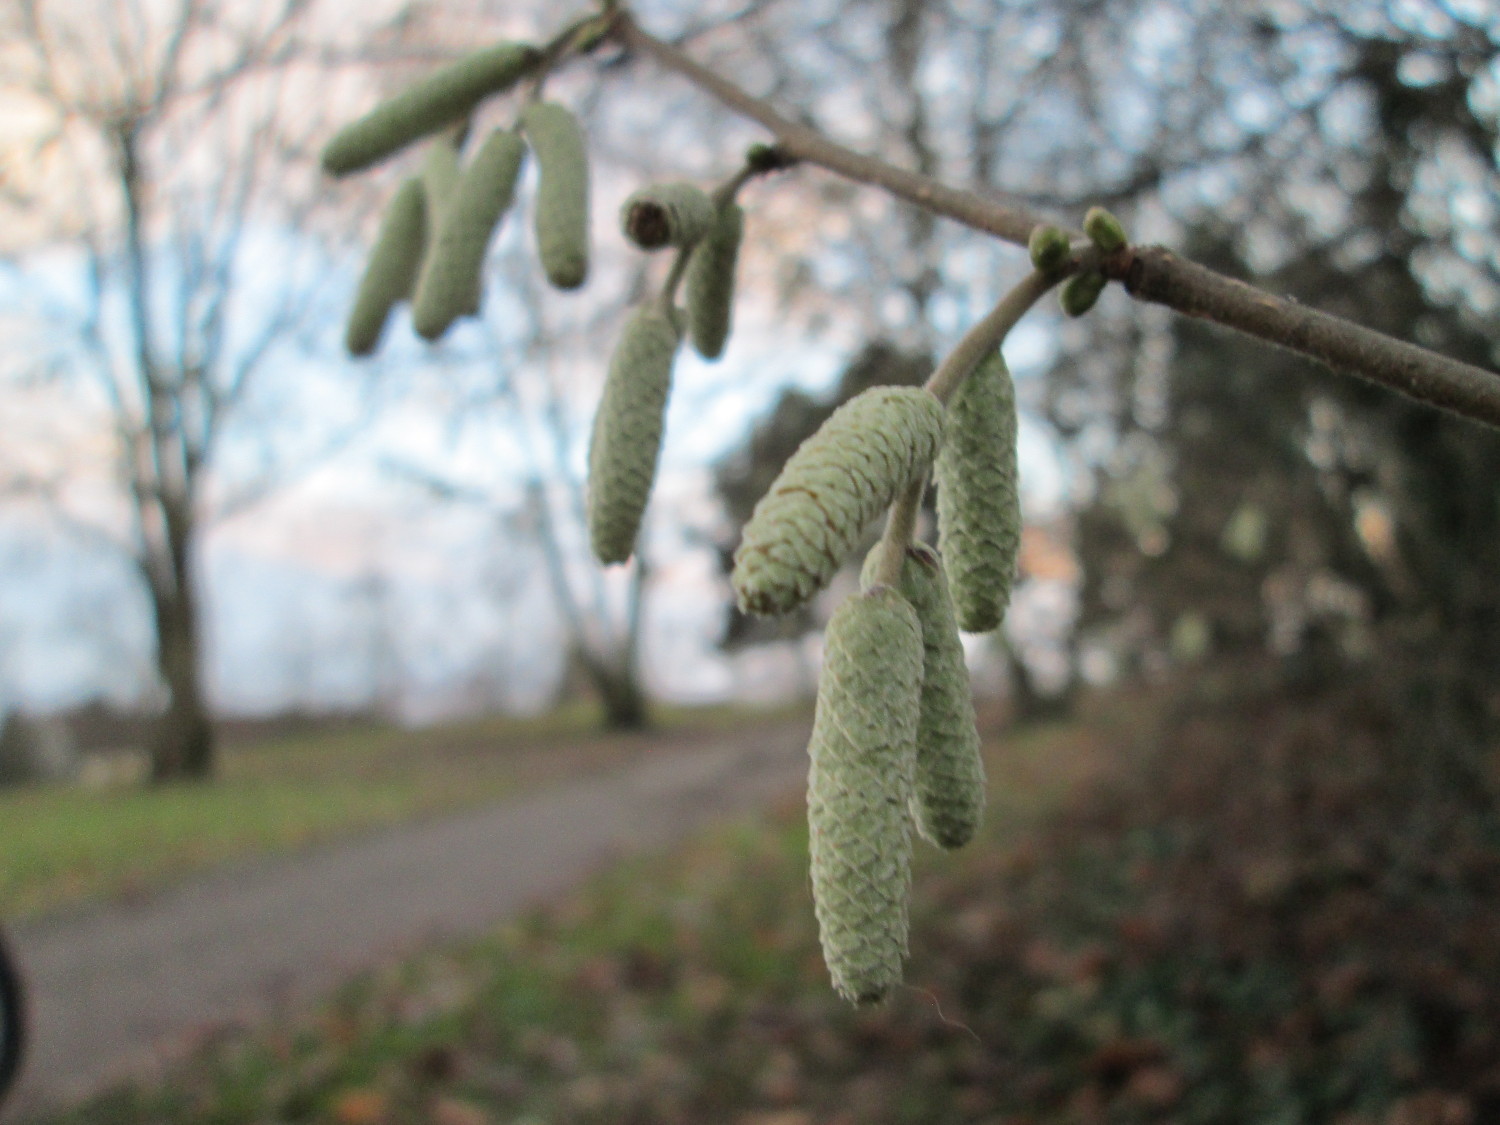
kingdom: Plantae
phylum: Tracheophyta
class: Magnoliopsida
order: Fagales
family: Betulaceae
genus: Corylus
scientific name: Corylus avellana
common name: European hazel
